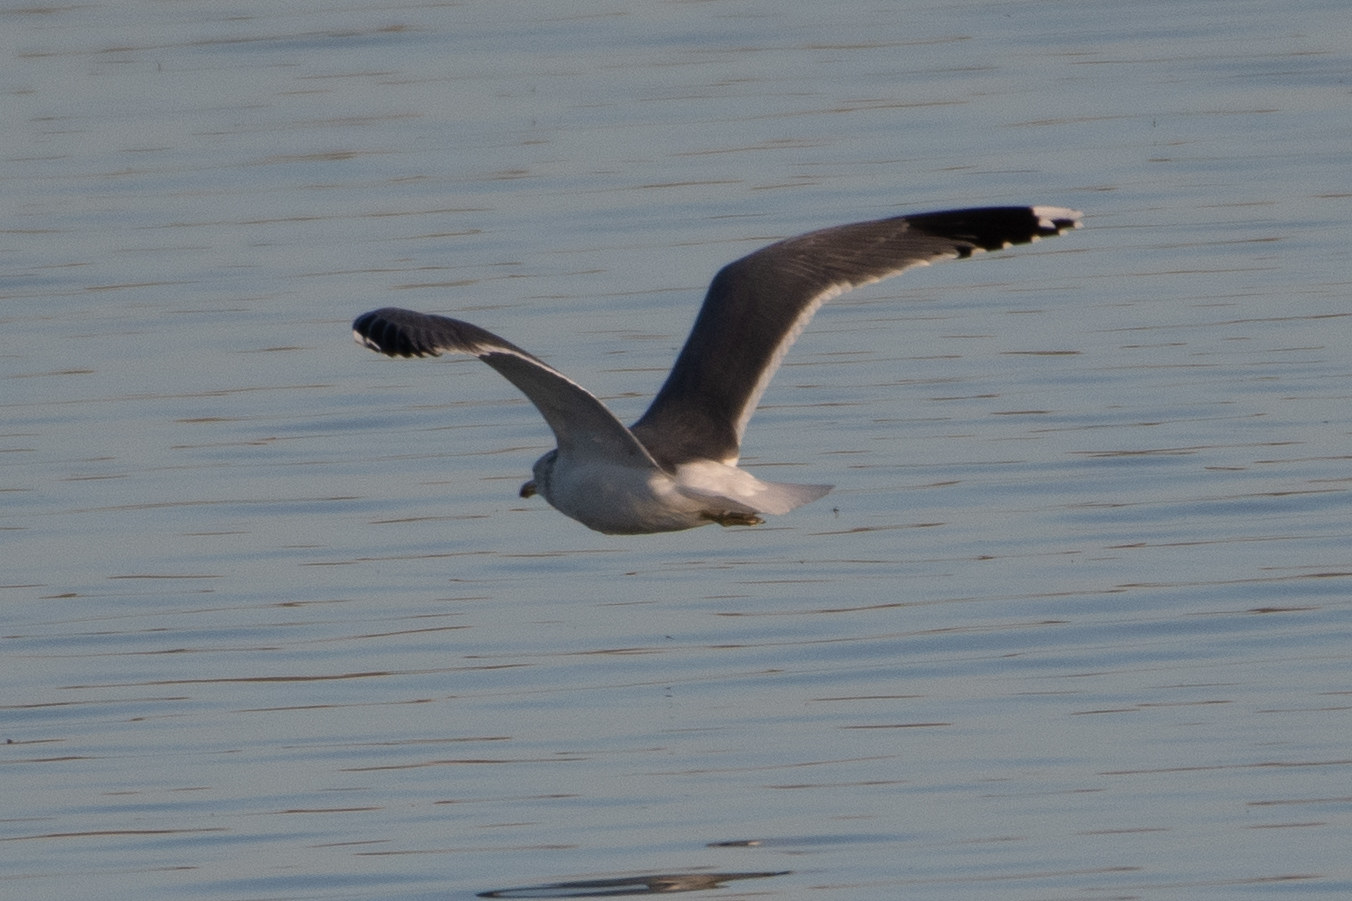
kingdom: Animalia
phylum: Chordata
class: Aves
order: Charadriiformes
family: Laridae
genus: Larus
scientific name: Larus californicus
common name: California gull
